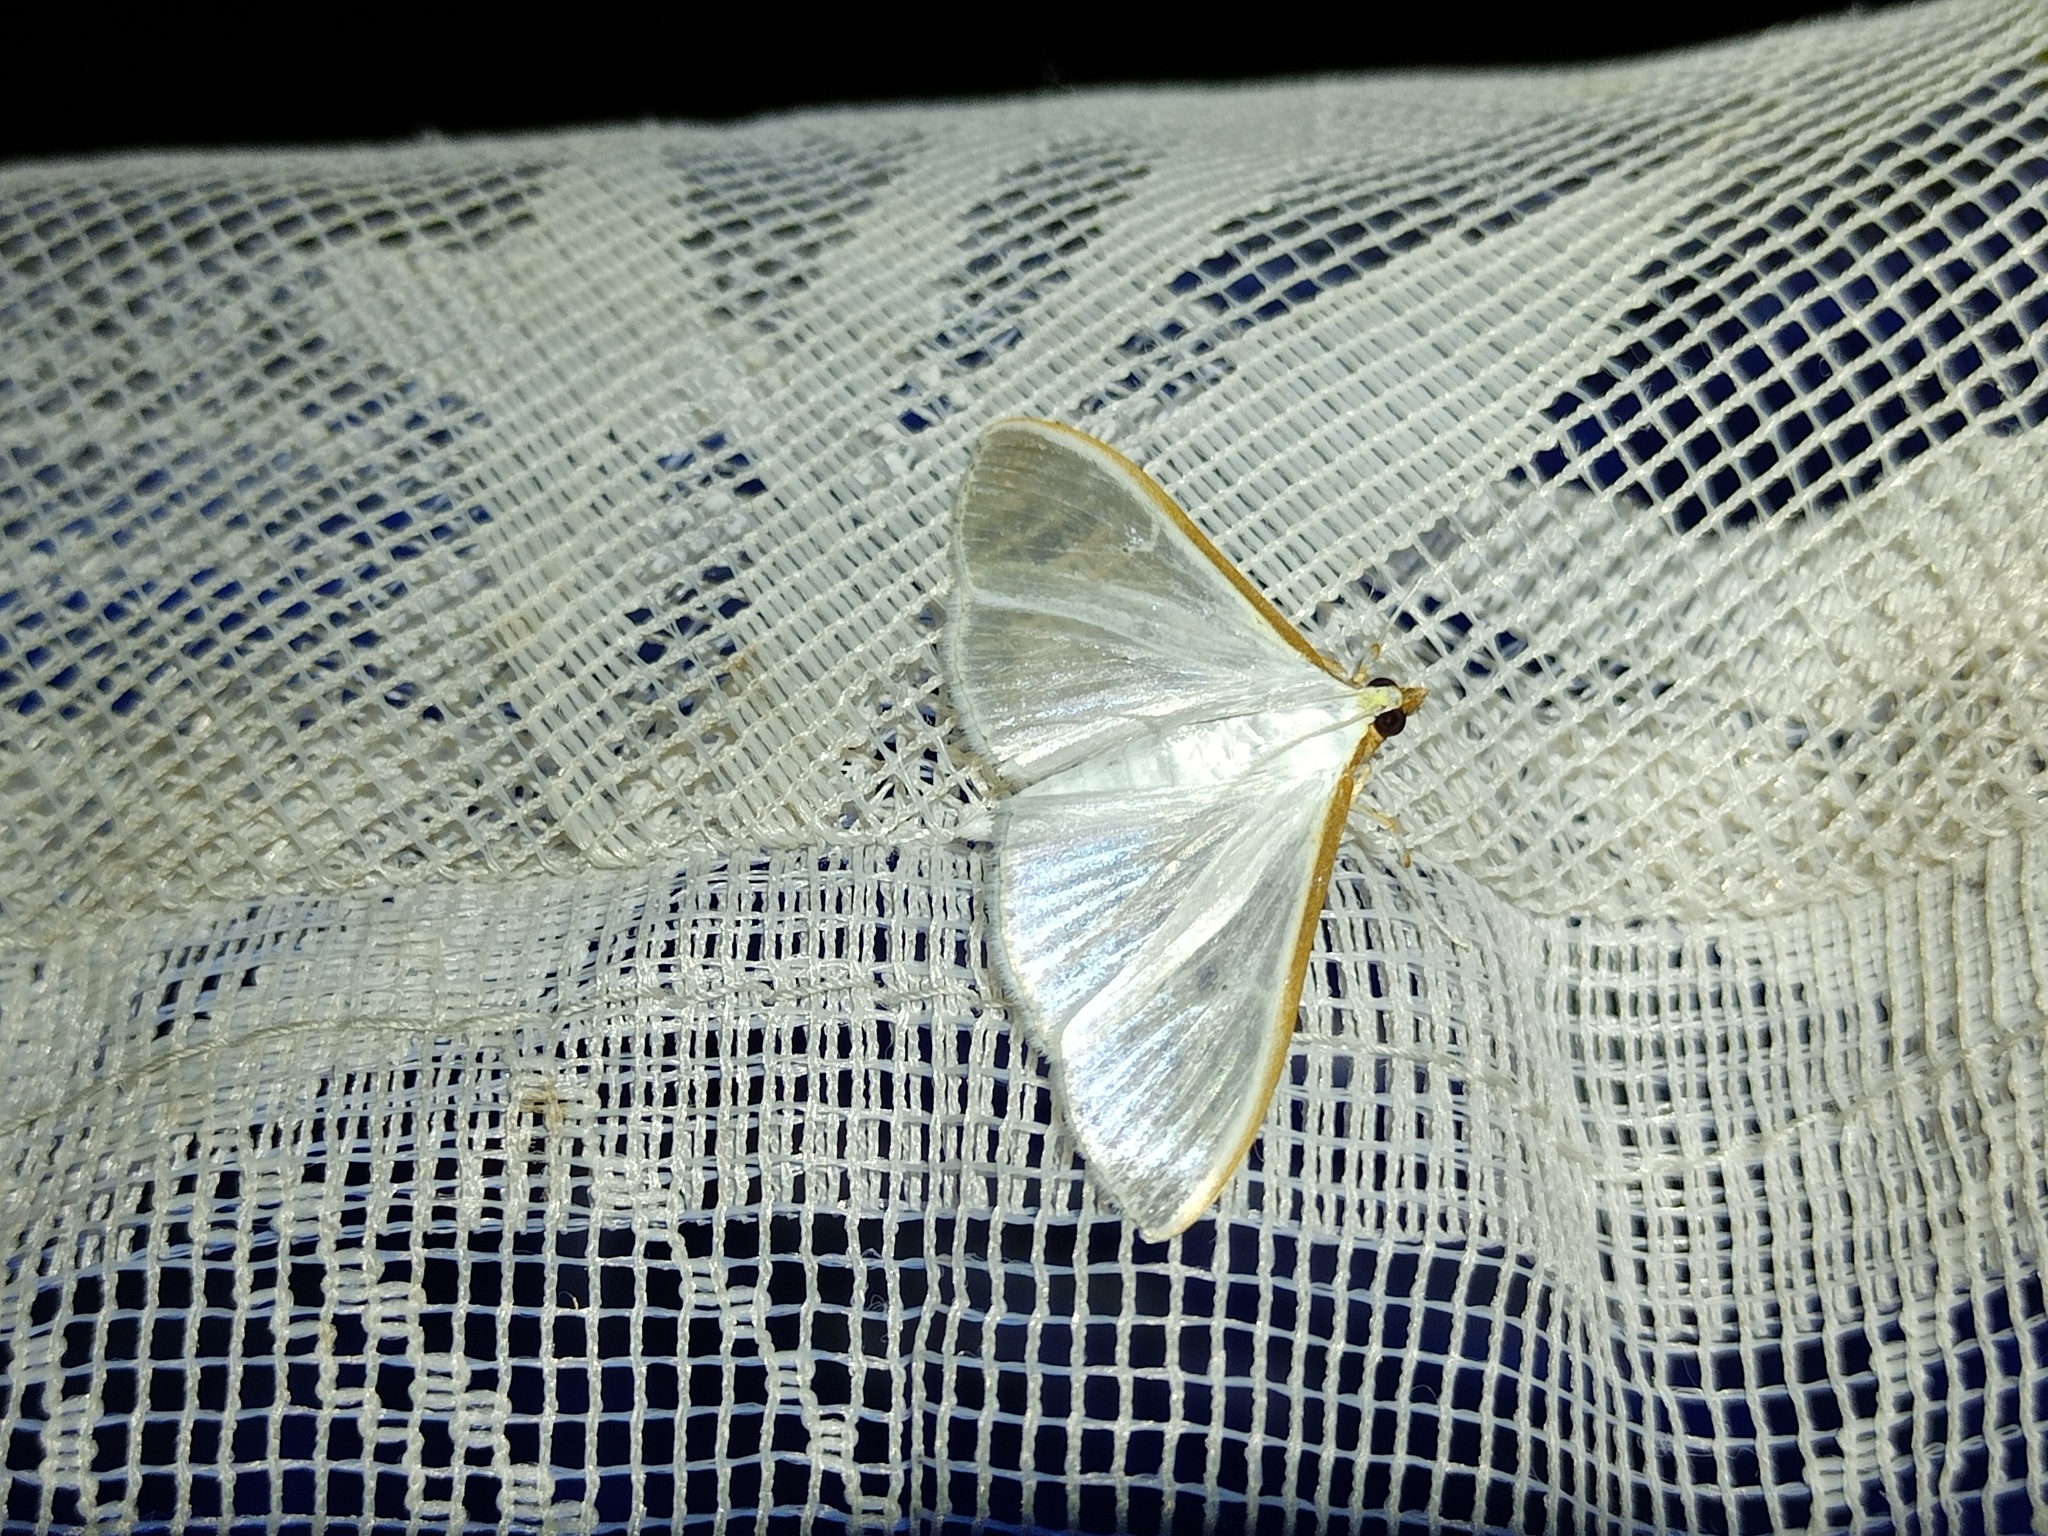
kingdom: Animalia
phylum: Arthropoda
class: Insecta
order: Lepidoptera
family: Crambidae
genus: Palpita
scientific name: Palpita vitrealis
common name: Olive-tree pearl
